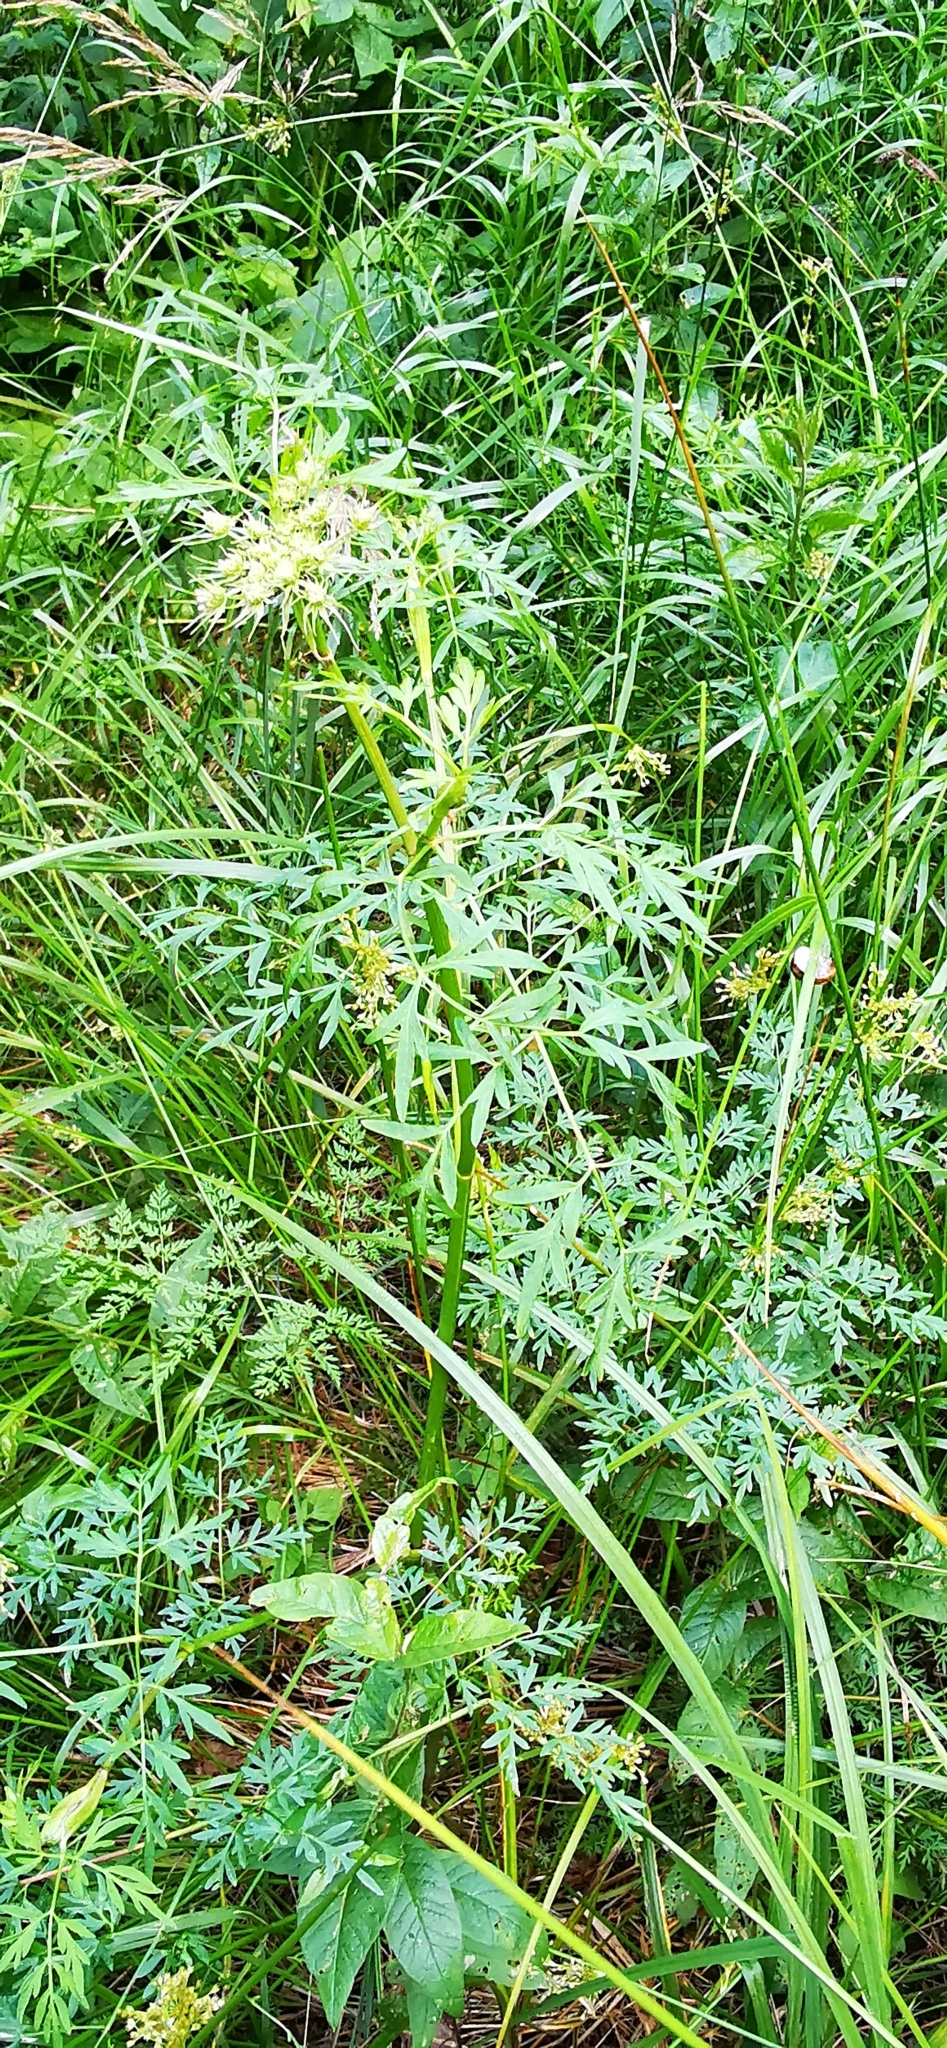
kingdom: Plantae
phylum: Tracheophyta
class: Magnoliopsida
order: Apiales
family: Apiaceae
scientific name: Apiaceae
